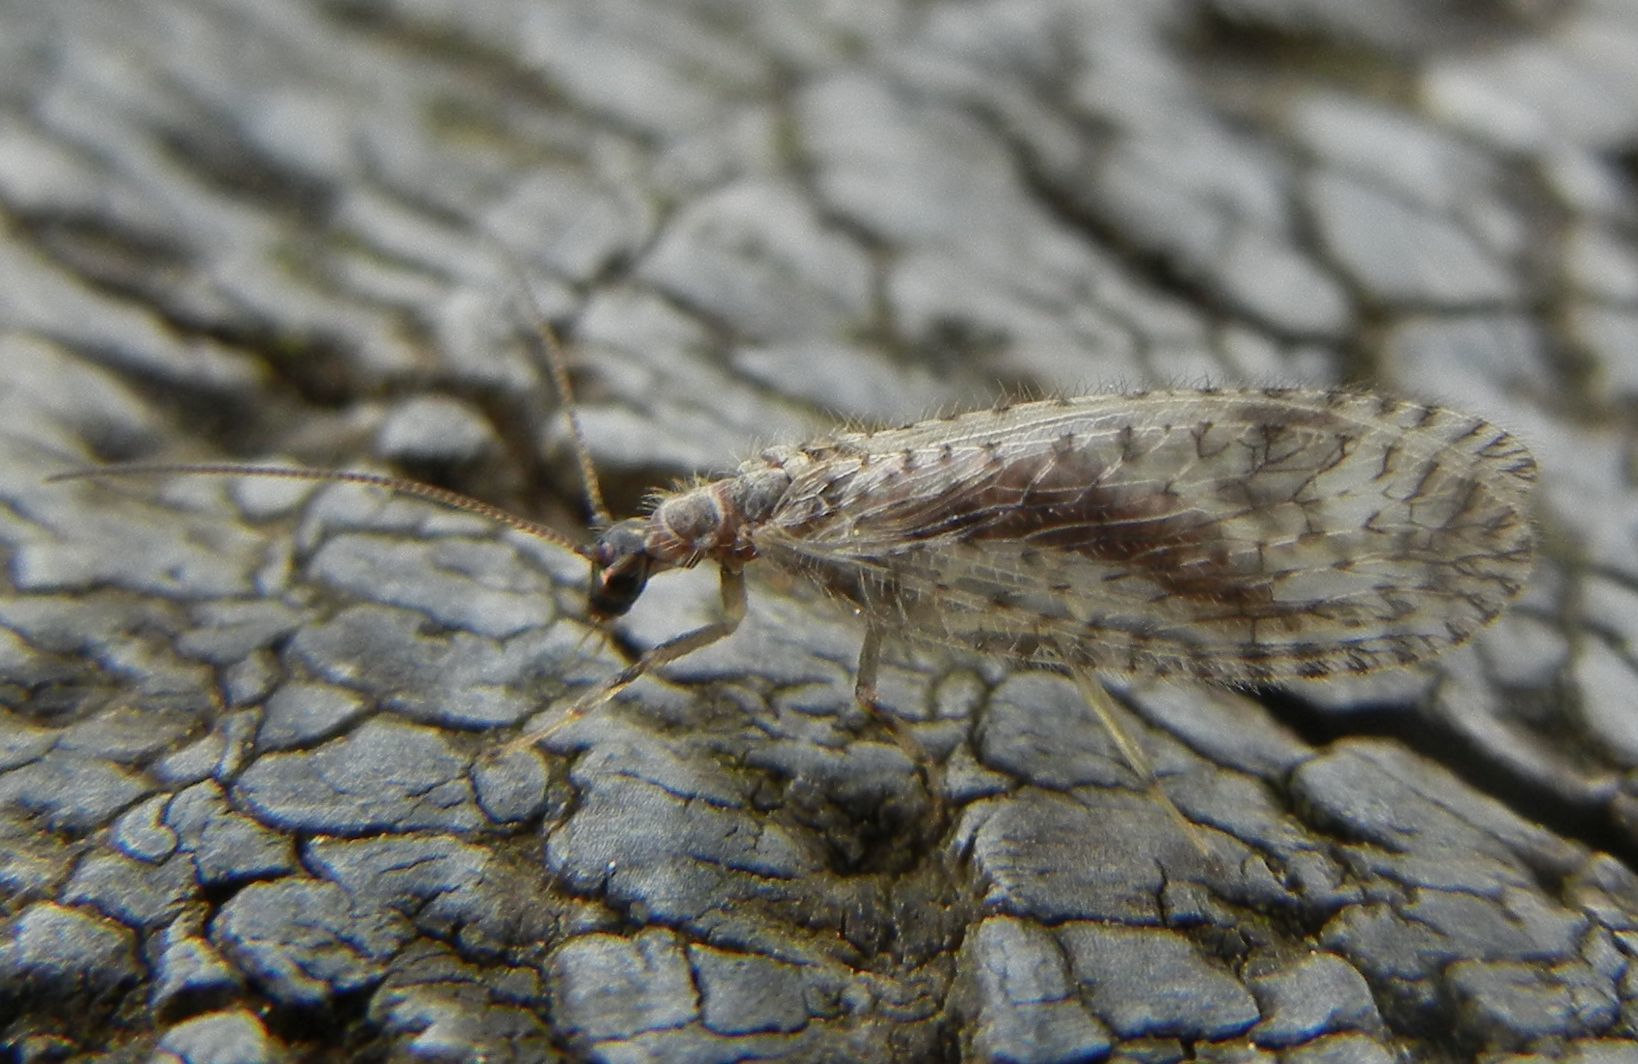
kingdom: Animalia
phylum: Arthropoda
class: Insecta
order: Neuroptera
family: Hemerobiidae
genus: Micromus
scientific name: Micromus variegatus
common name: Brown lacewing
